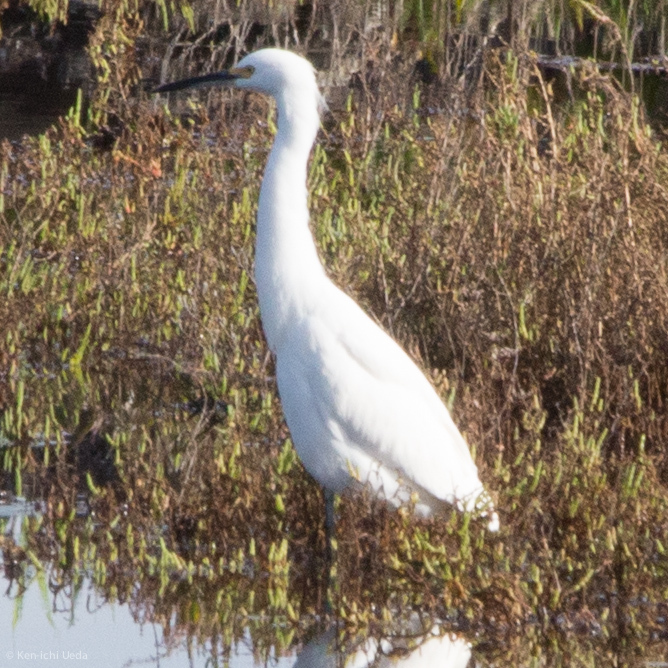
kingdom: Animalia
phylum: Chordata
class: Aves
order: Pelecaniformes
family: Ardeidae
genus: Egretta
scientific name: Egretta thula
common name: Snowy egret
